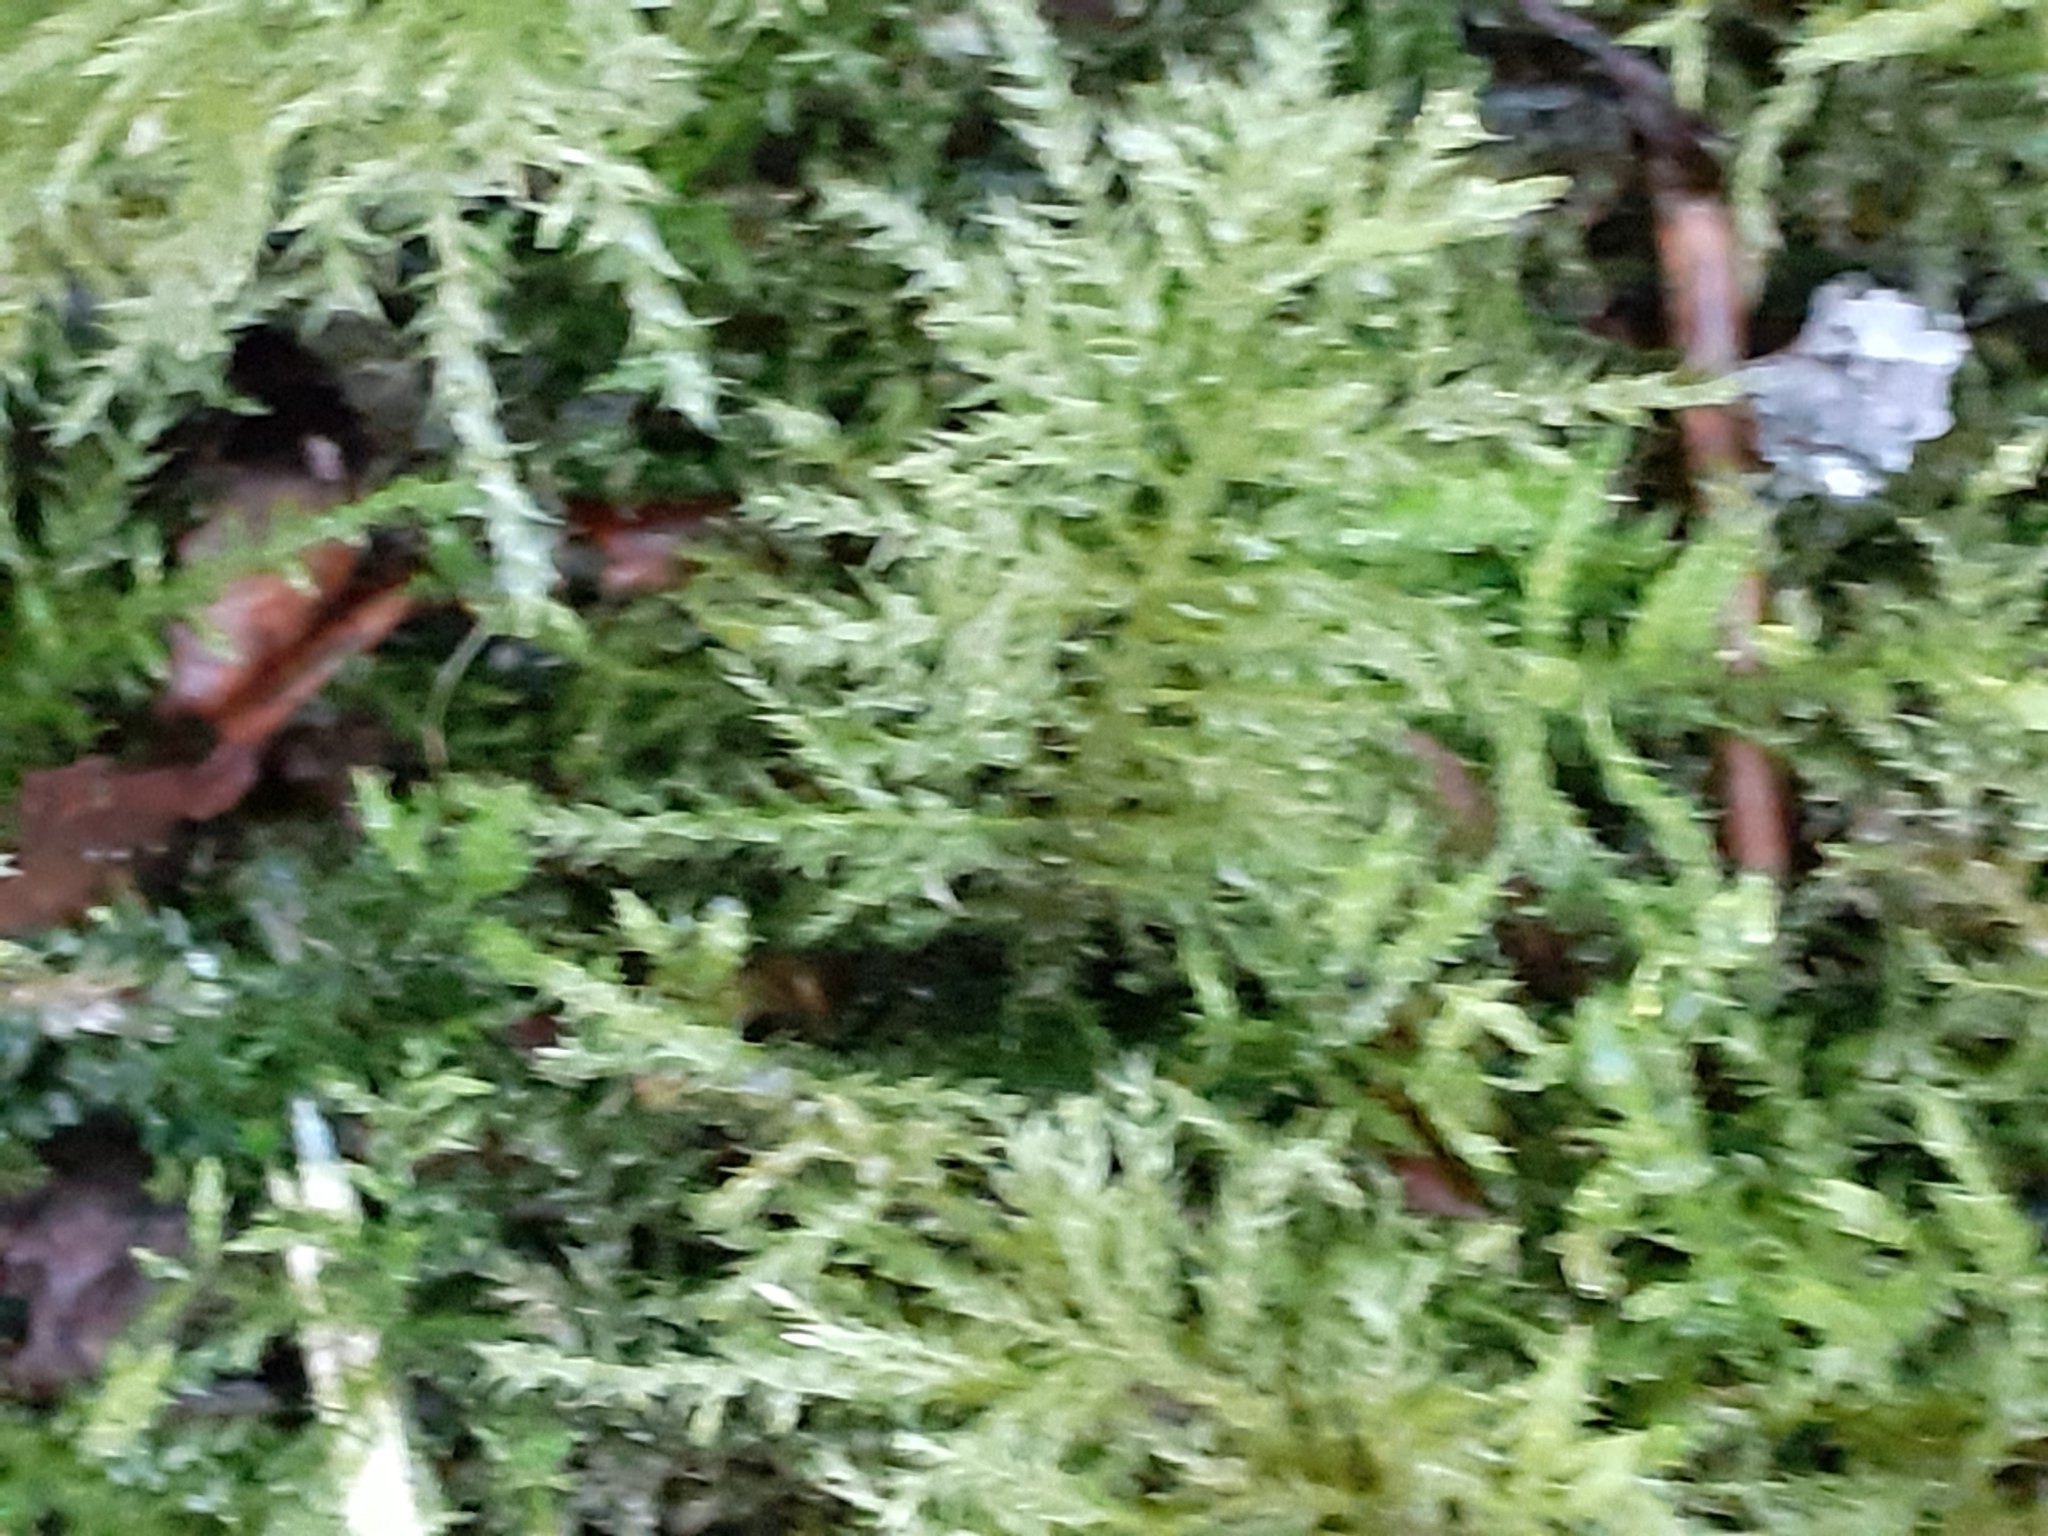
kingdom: Plantae
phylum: Bryophyta
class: Bryopsida
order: Hypnales
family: Brachytheciaceae
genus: Kindbergia
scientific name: Kindbergia praelonga
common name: Slender beaked moss
